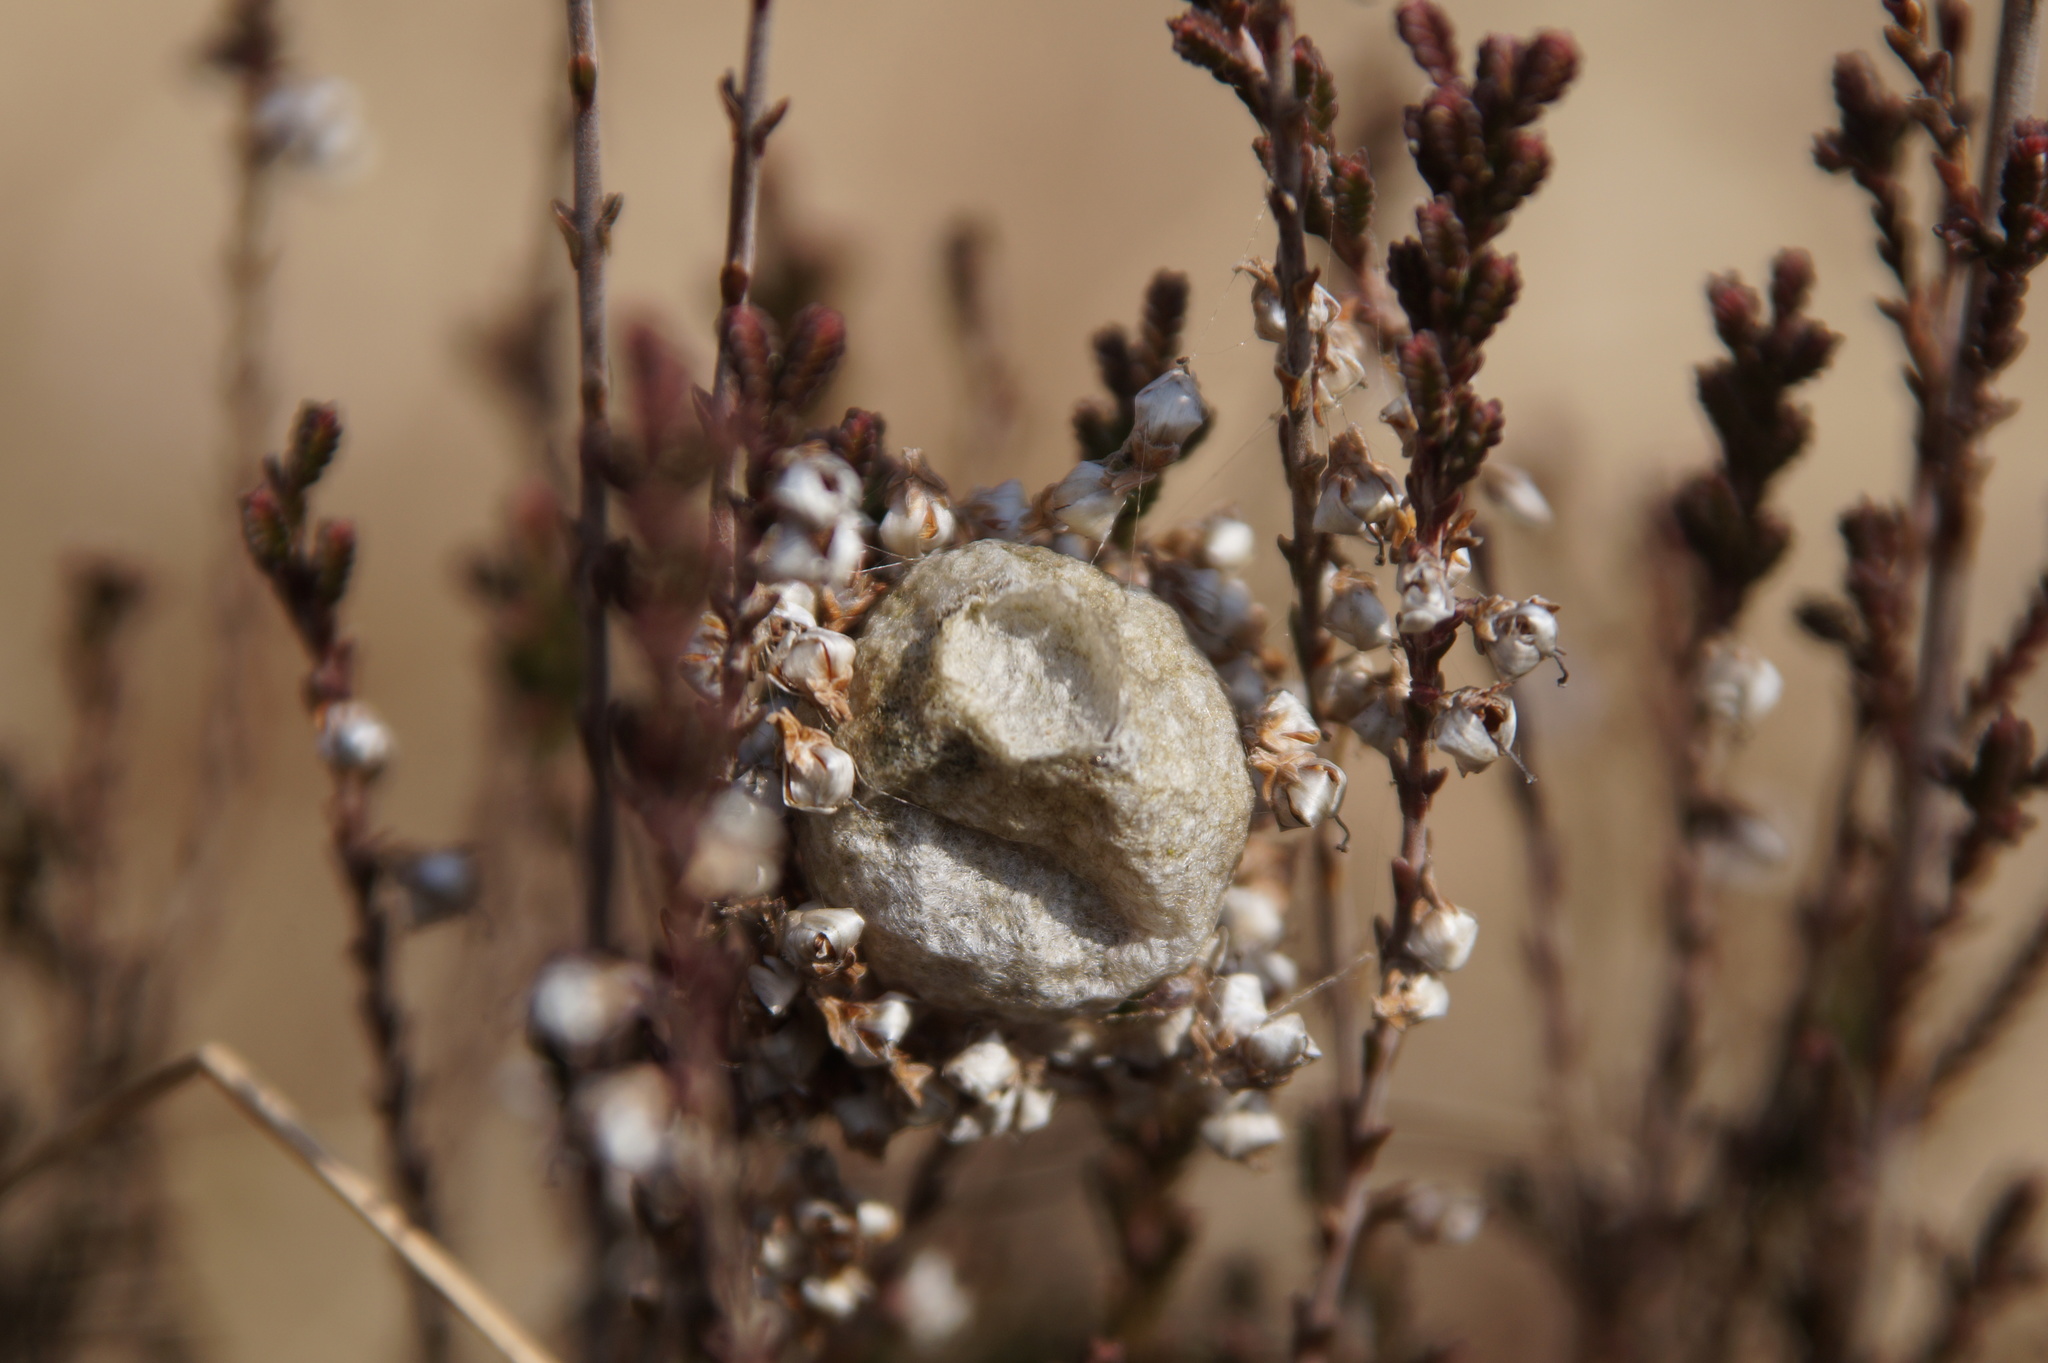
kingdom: Animalia
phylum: Arthropoda
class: Arachnida
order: Araneae
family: Araneidae
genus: Argiope
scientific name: Argiope bruennichi
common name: Wasp spider
